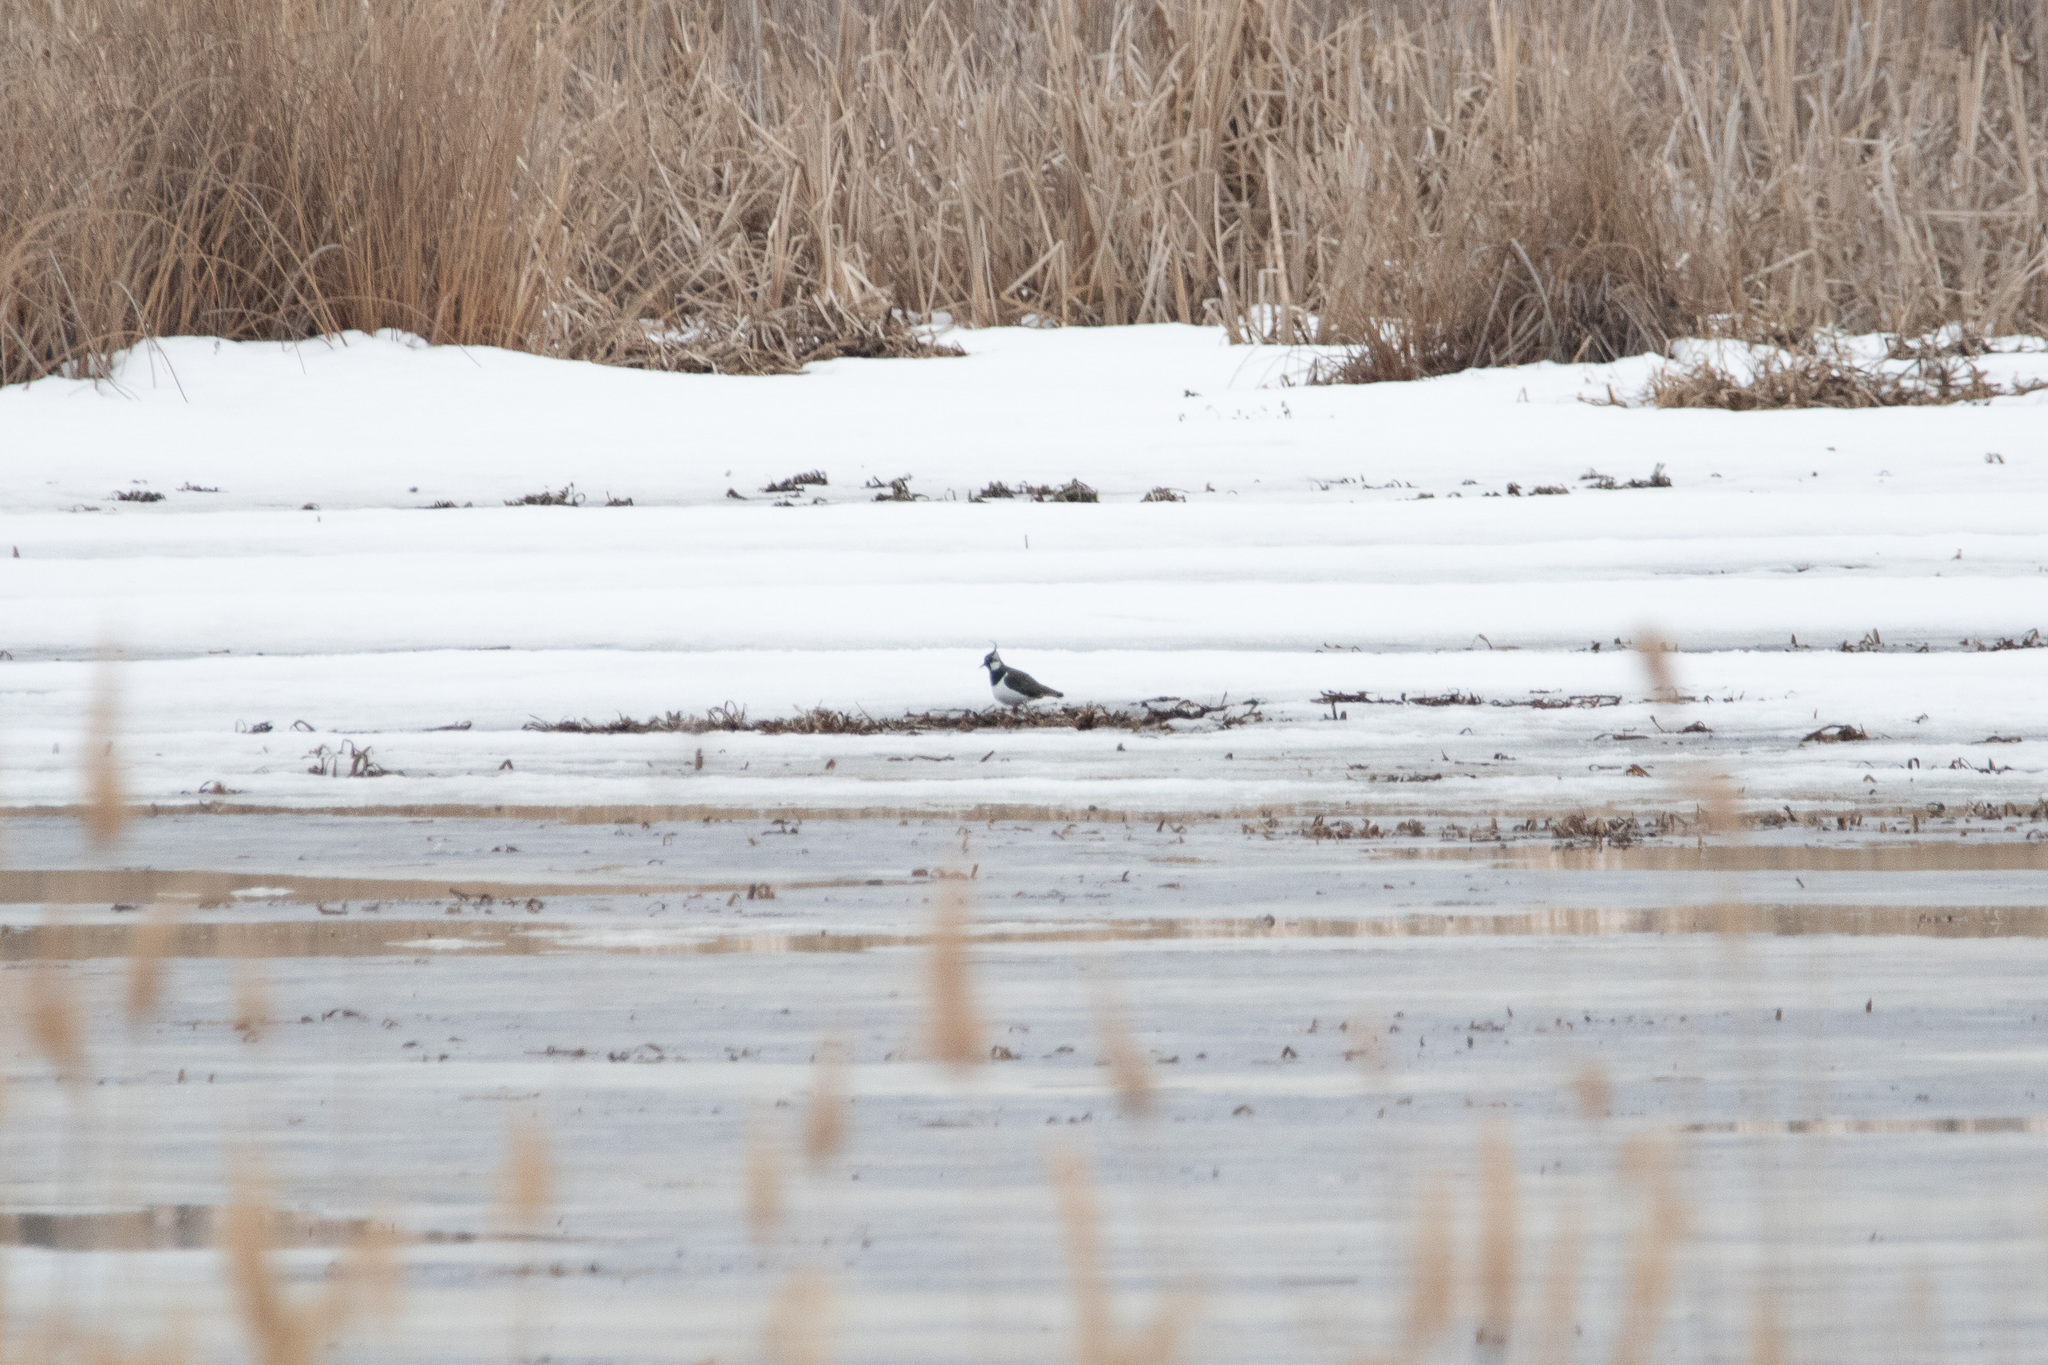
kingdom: Animalia
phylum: Chordata
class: Aves
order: Charadriiformes
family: Charadriidae
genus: Vanellus
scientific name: Vanellus vanellus
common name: Northern lapwing
